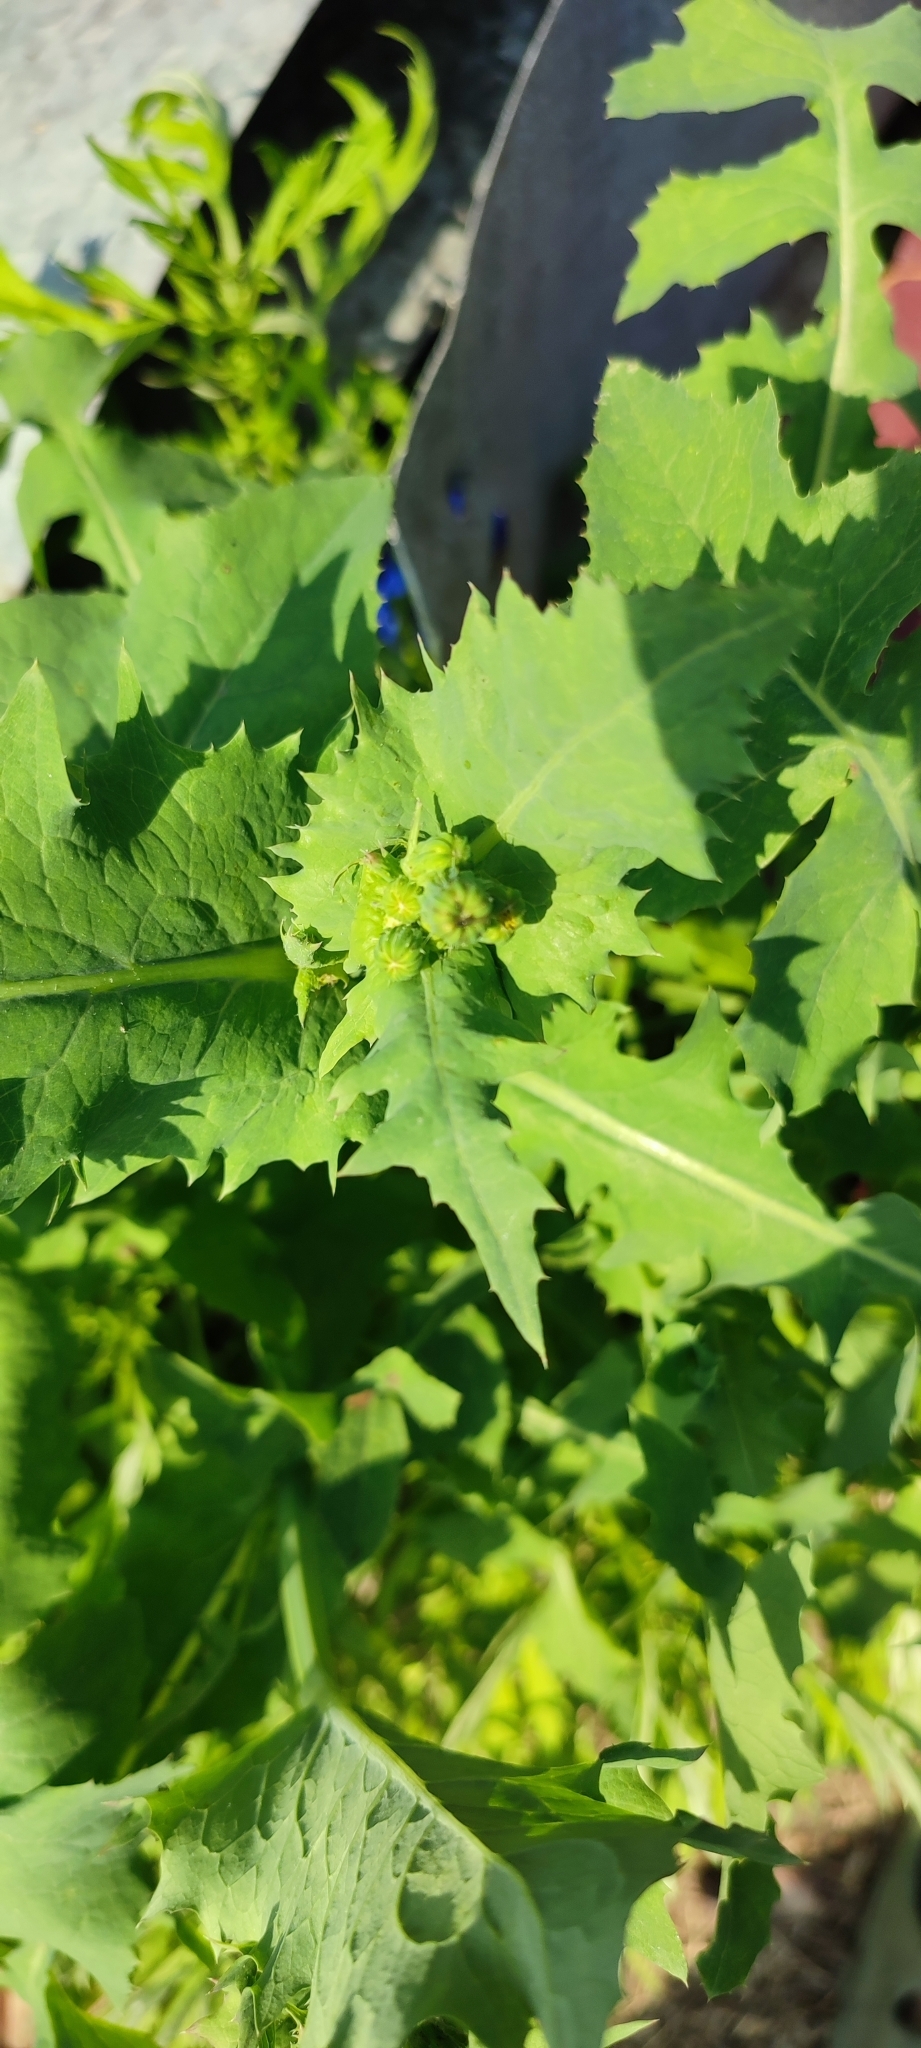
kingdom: Plantae
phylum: Tracheophyta
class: Magnoliopsida
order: Asterales
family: Asteraceae
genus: Sonchus
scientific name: Sonchus oleraceus
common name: Common sowthistle
